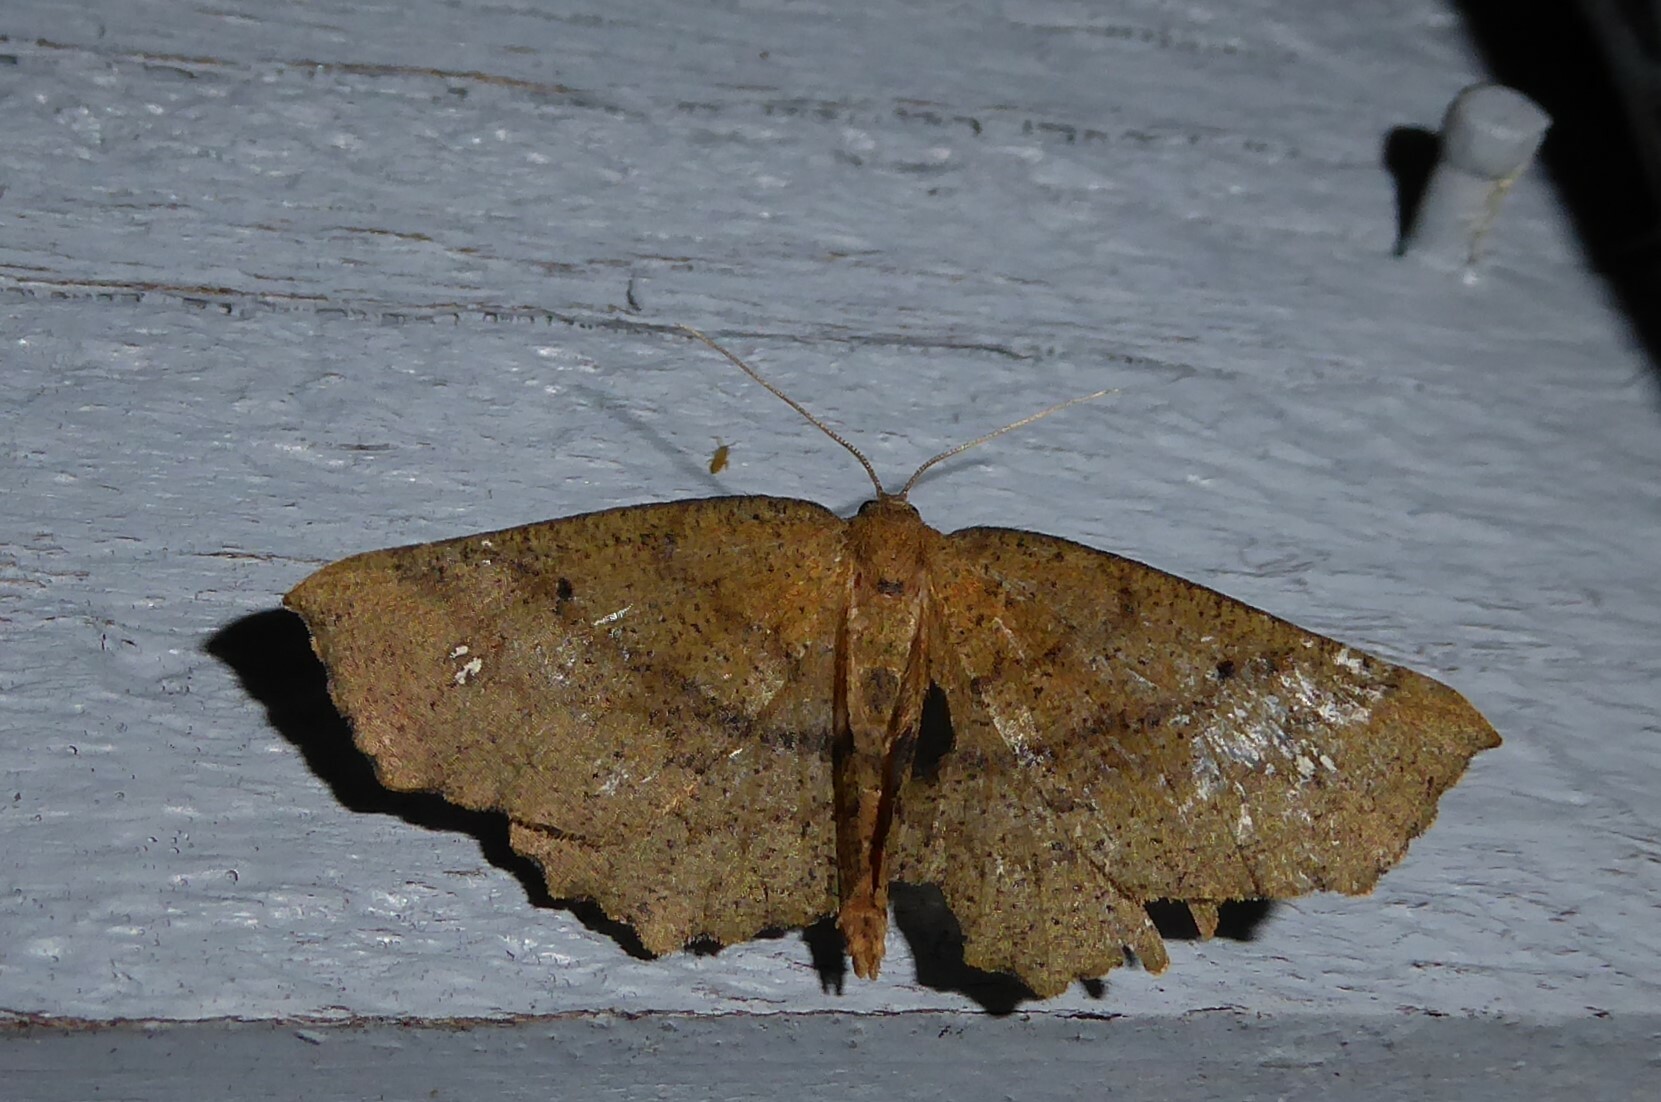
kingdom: Animalia
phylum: Arthropoda
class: Insecta
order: Lepidoptera
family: Geometridae
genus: Xyridacma
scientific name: Xyridacma ustaria
